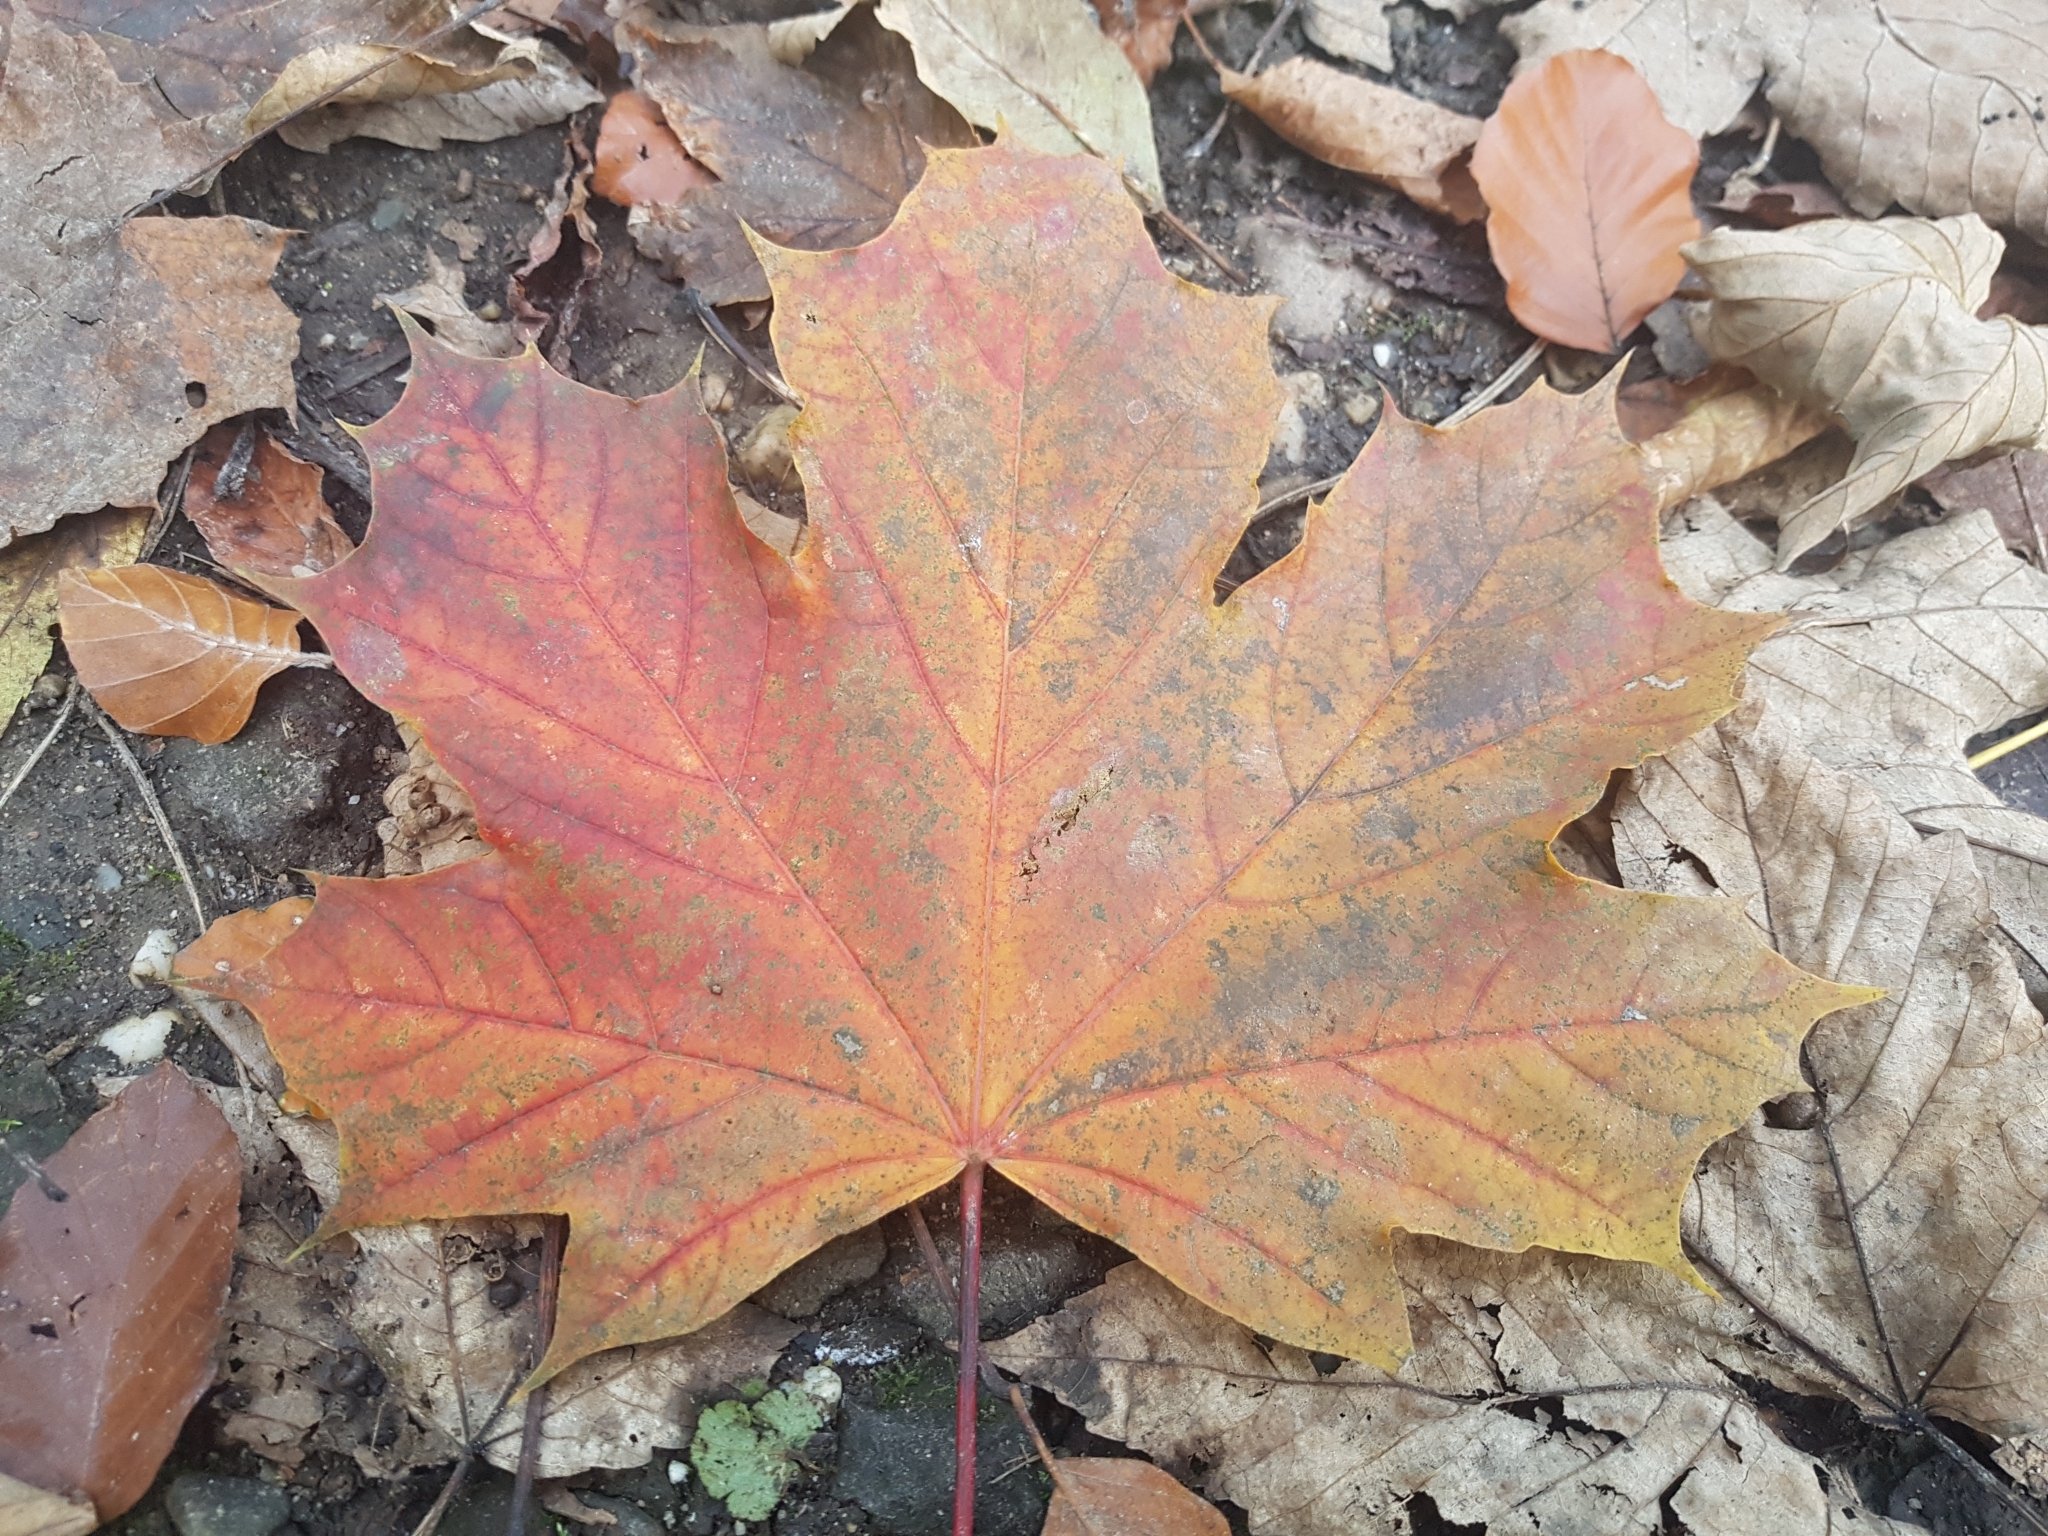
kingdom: Plantae
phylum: Tracheophyta
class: Magnoliopsida
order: Sapindales
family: Sapindaceae
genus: Acer
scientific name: Acer platanoides
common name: Norway maple
